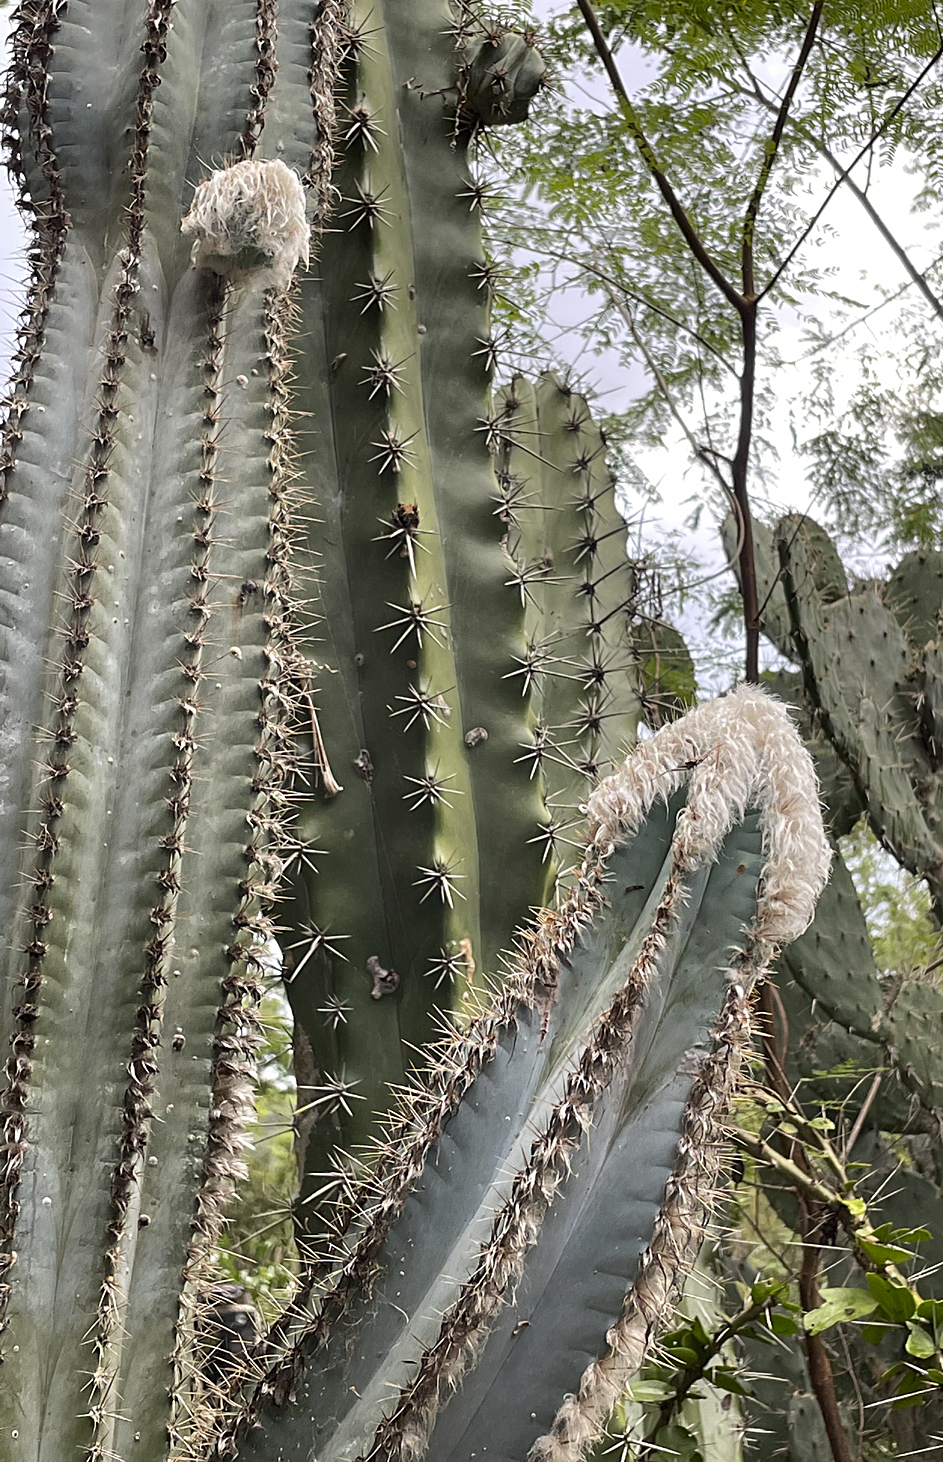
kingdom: Plantae
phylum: Tracheophyta
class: Magnoliopsida
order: Caryophyllales
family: Cactaceae
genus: Pilosocereus
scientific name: Pilosocereus leucocephalus
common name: Old man cactus
